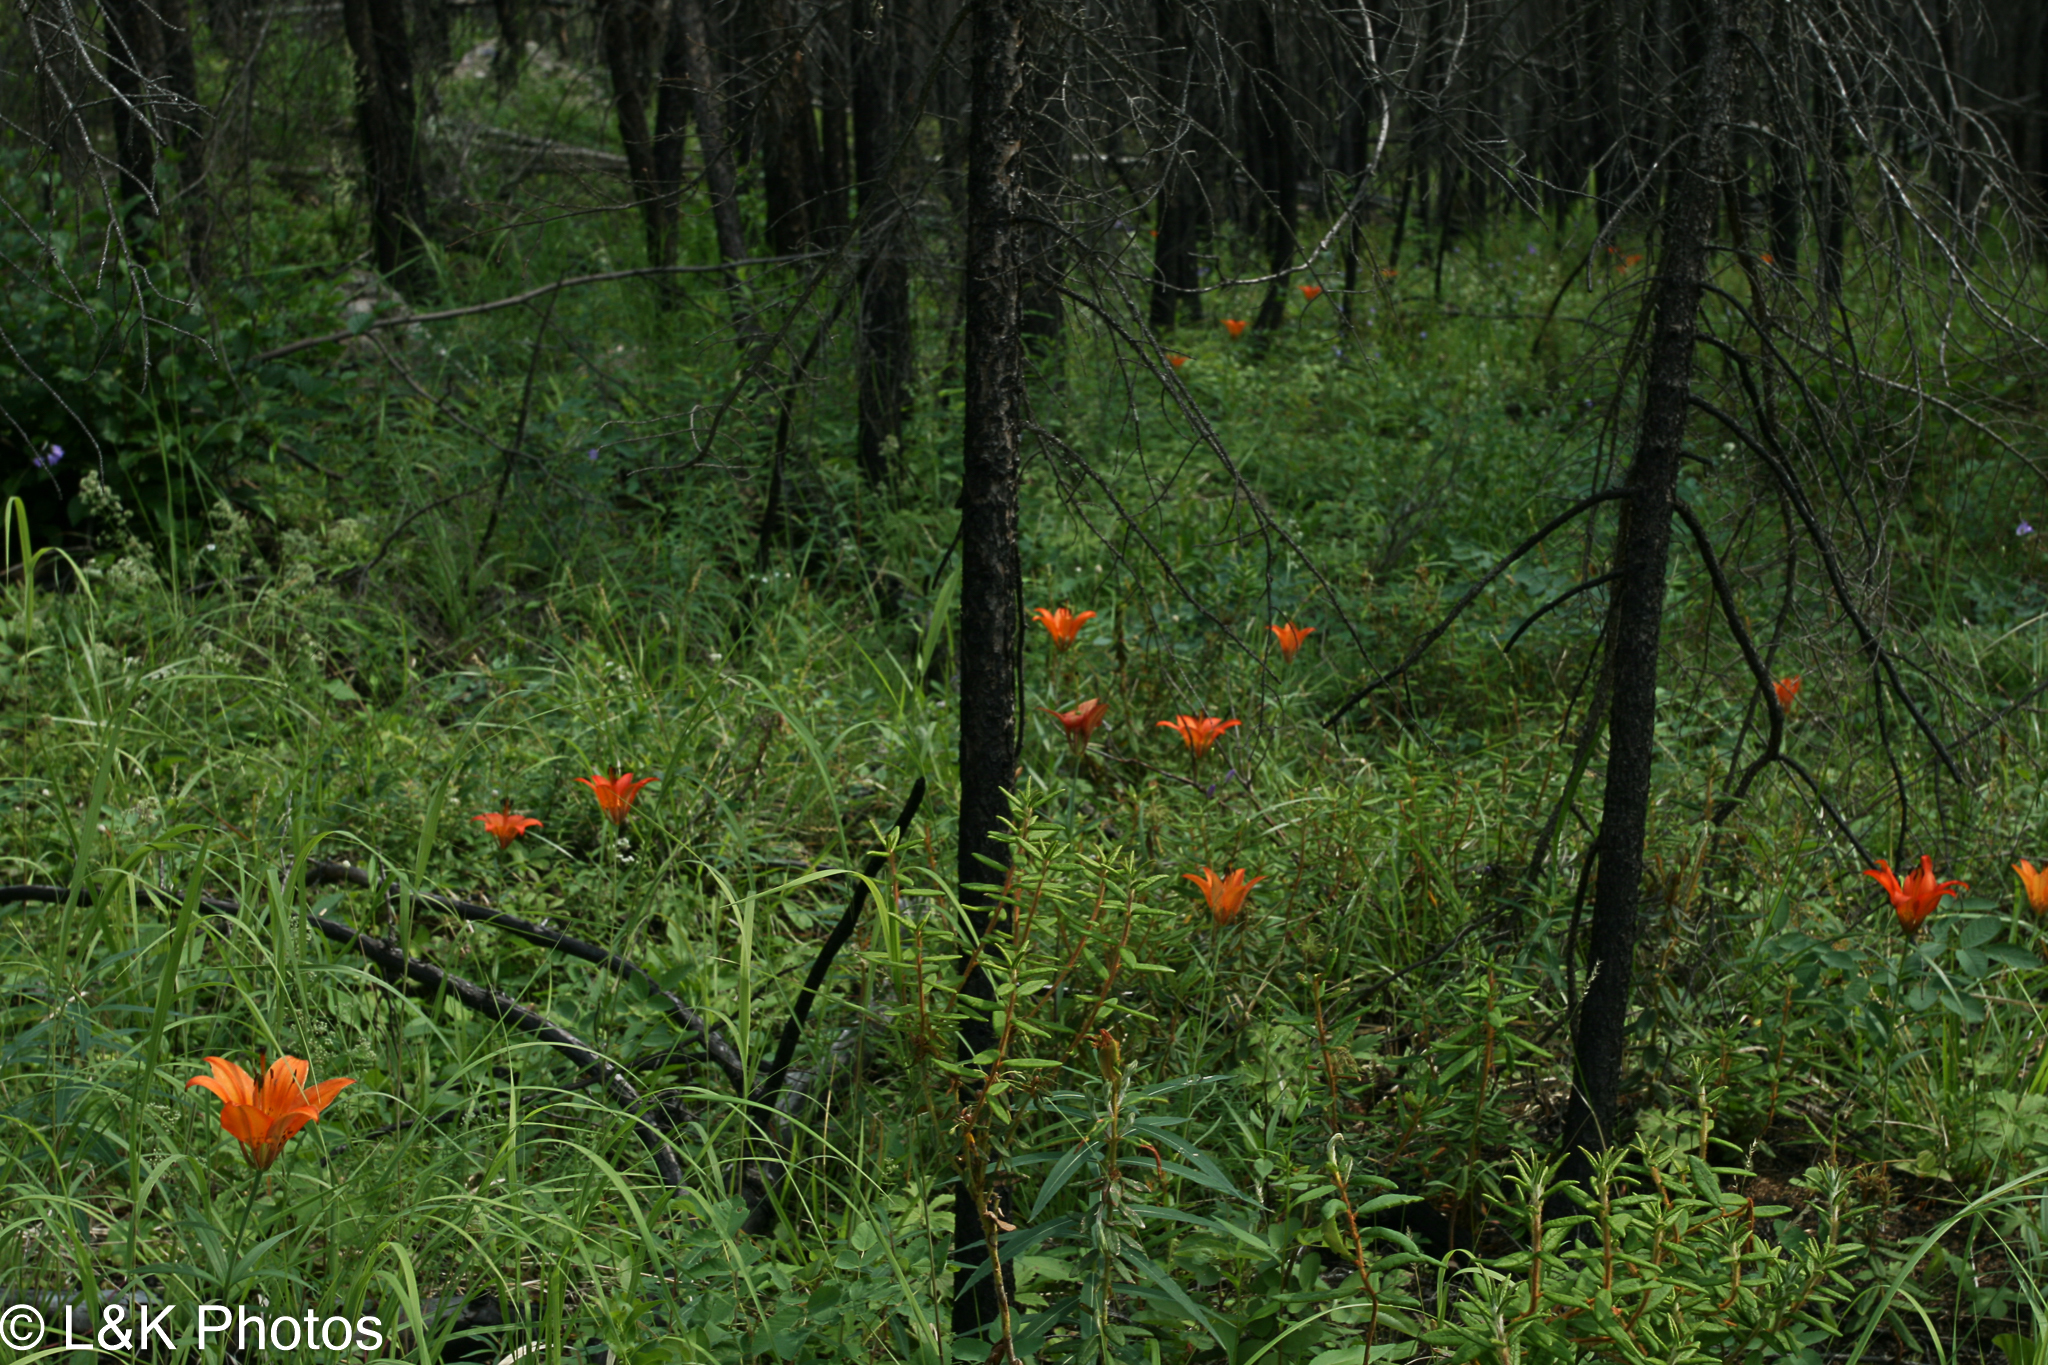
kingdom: Plantae
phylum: Tracheophyta
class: Liliopsida
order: Liliales
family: Liliaceae
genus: Lilium
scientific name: Lilium philadelphicum
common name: Red lily
